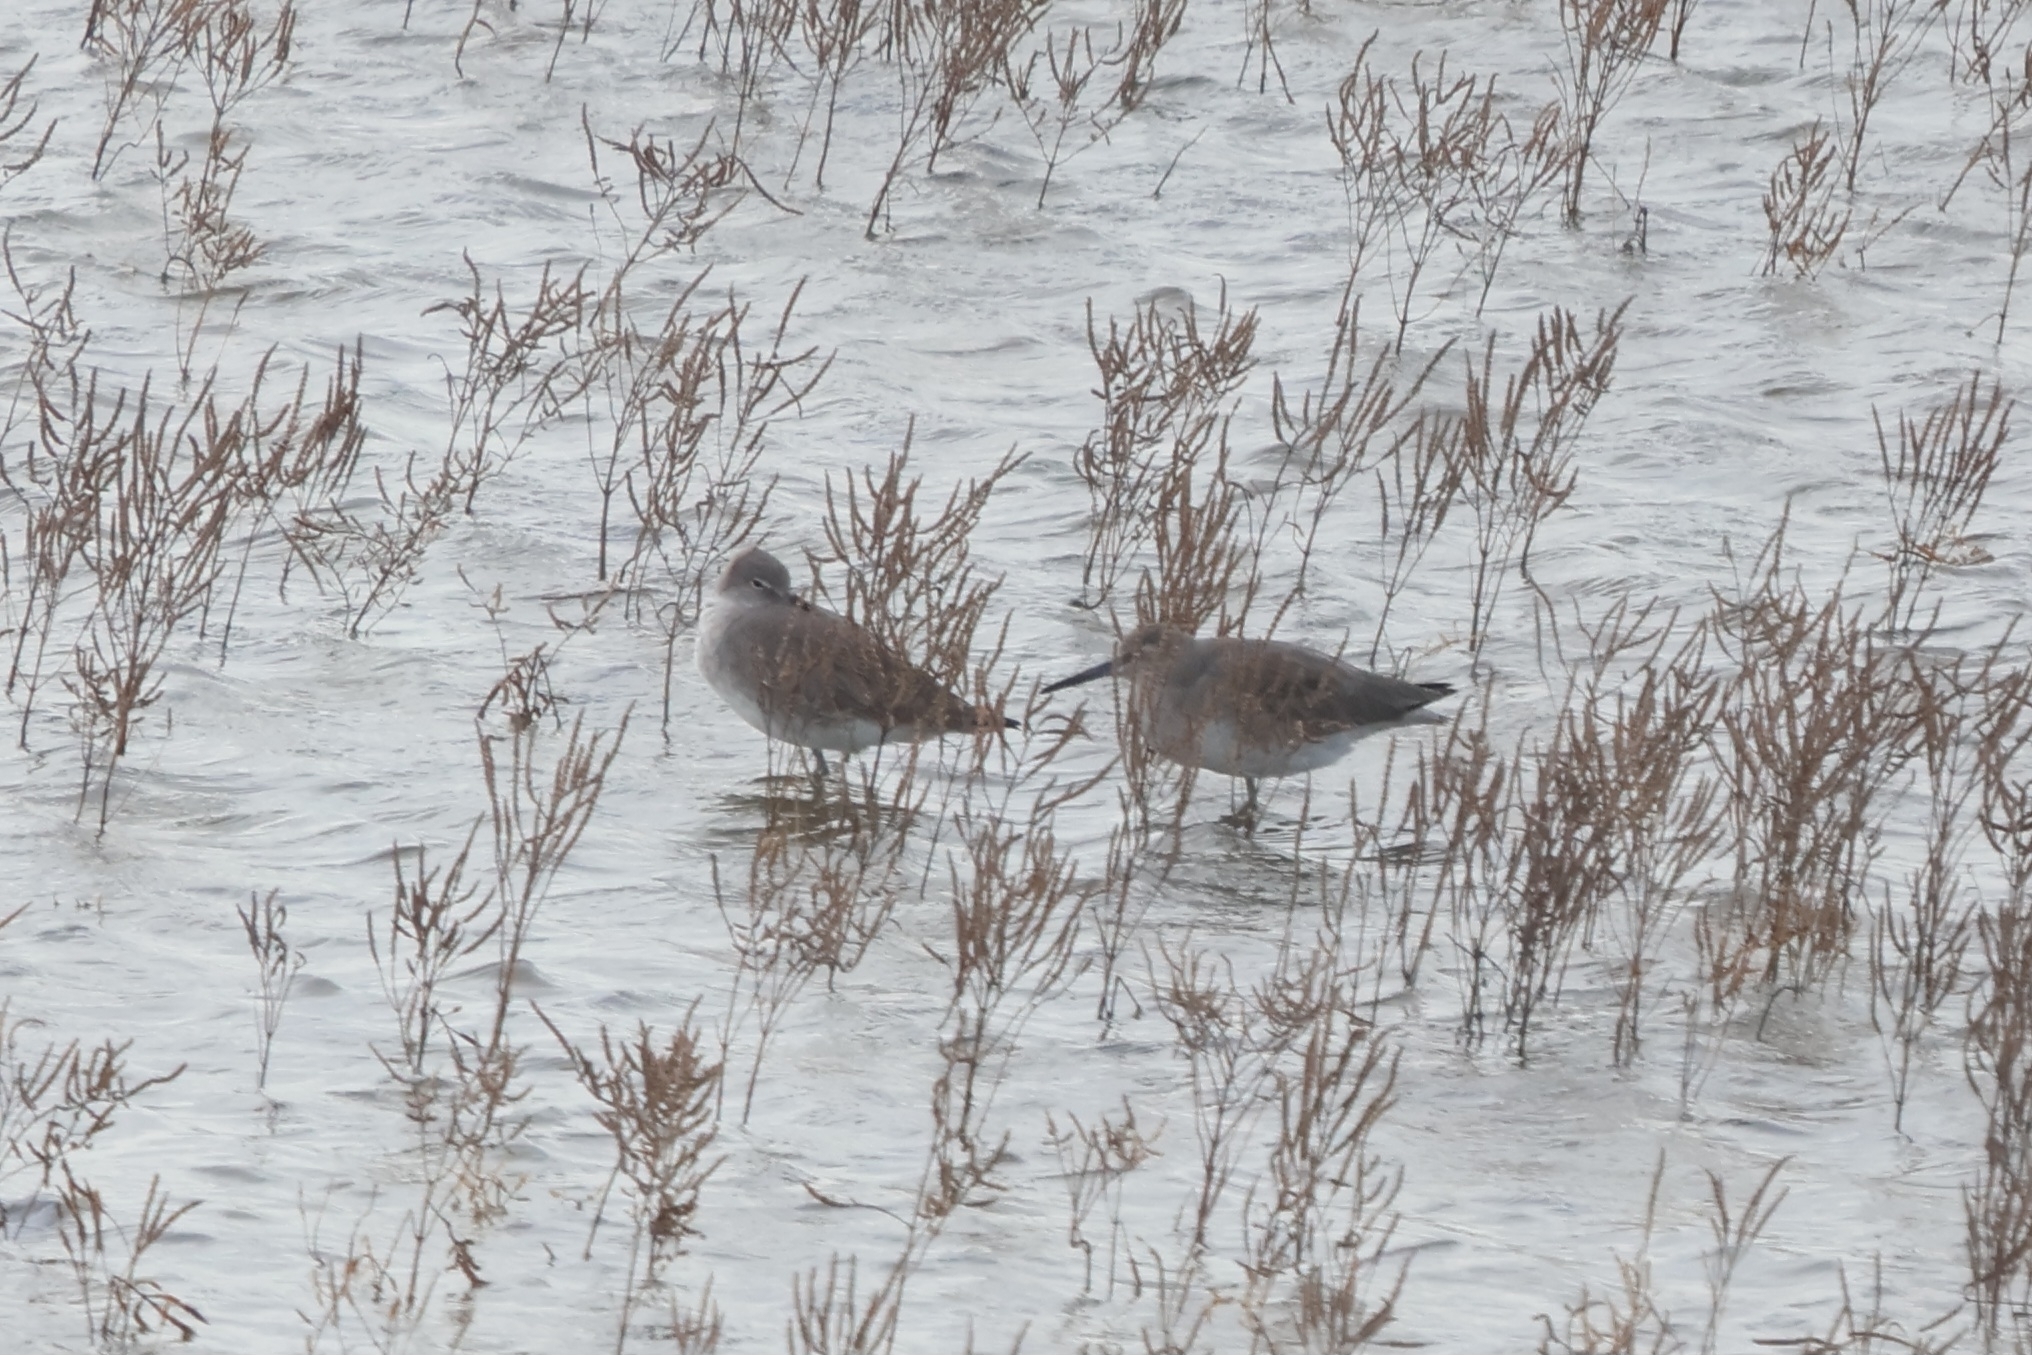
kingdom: Animalia
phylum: Chordata
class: Aves
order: Charadriiformes
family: Scolopacidae
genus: Tringa
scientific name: Tringa semipalmata
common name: Willet
